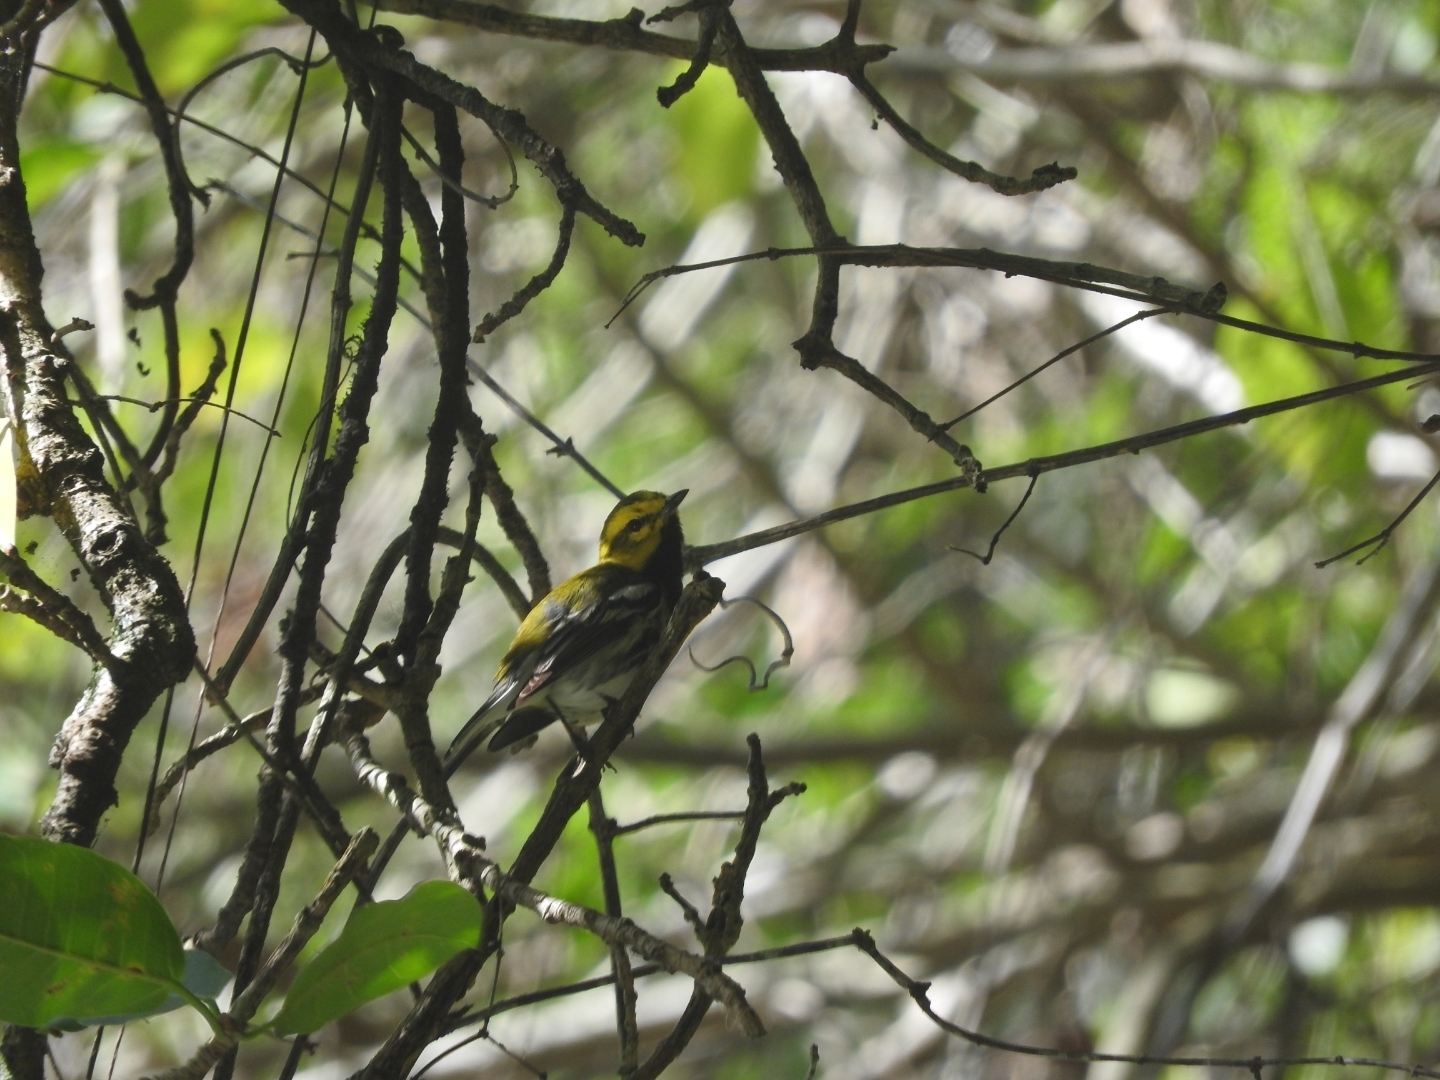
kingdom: Animalia
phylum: Chordata
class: Aves
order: Passeriformes
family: Parulidae
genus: Setophaga
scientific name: Setophaga virens
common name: Black-throated green warbler
